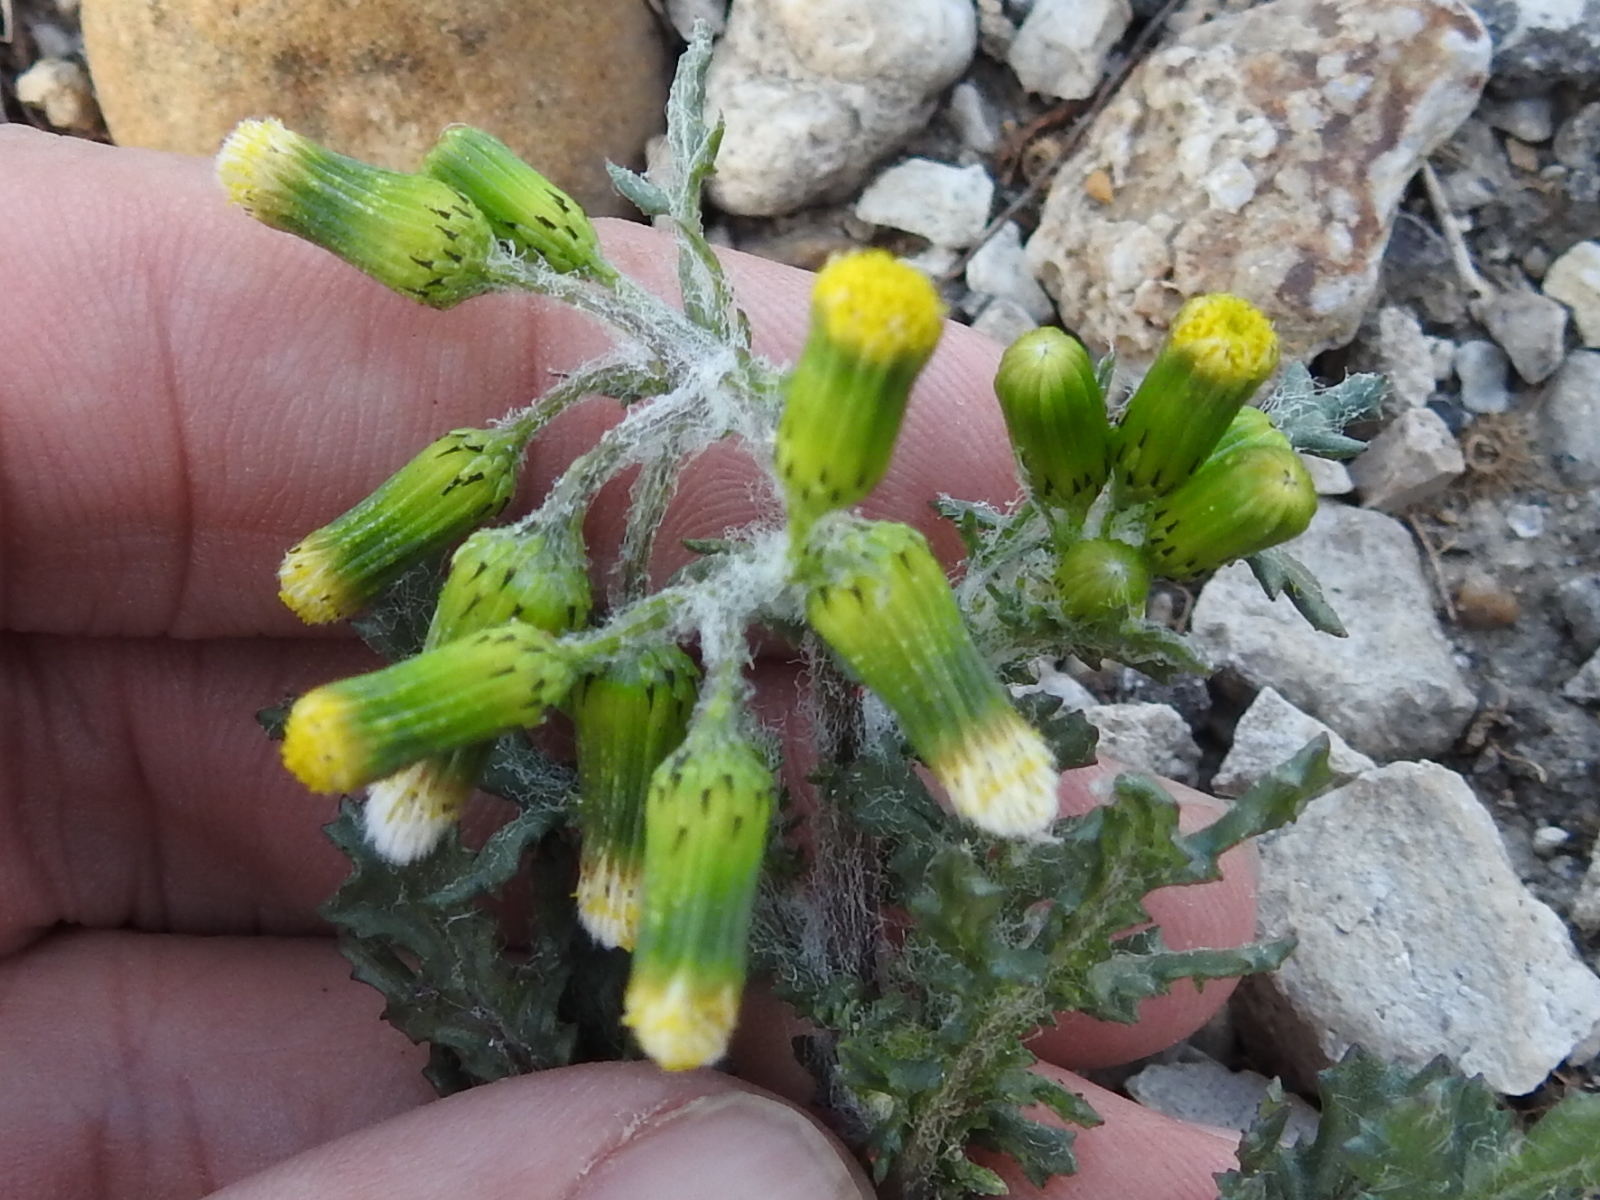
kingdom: Plantae
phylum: Tracheophyta
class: Magnoliopsida
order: Asterales
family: Asteraceae
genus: Senecio
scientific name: Senecio vulgaris
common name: Old-man-in-the-spring
